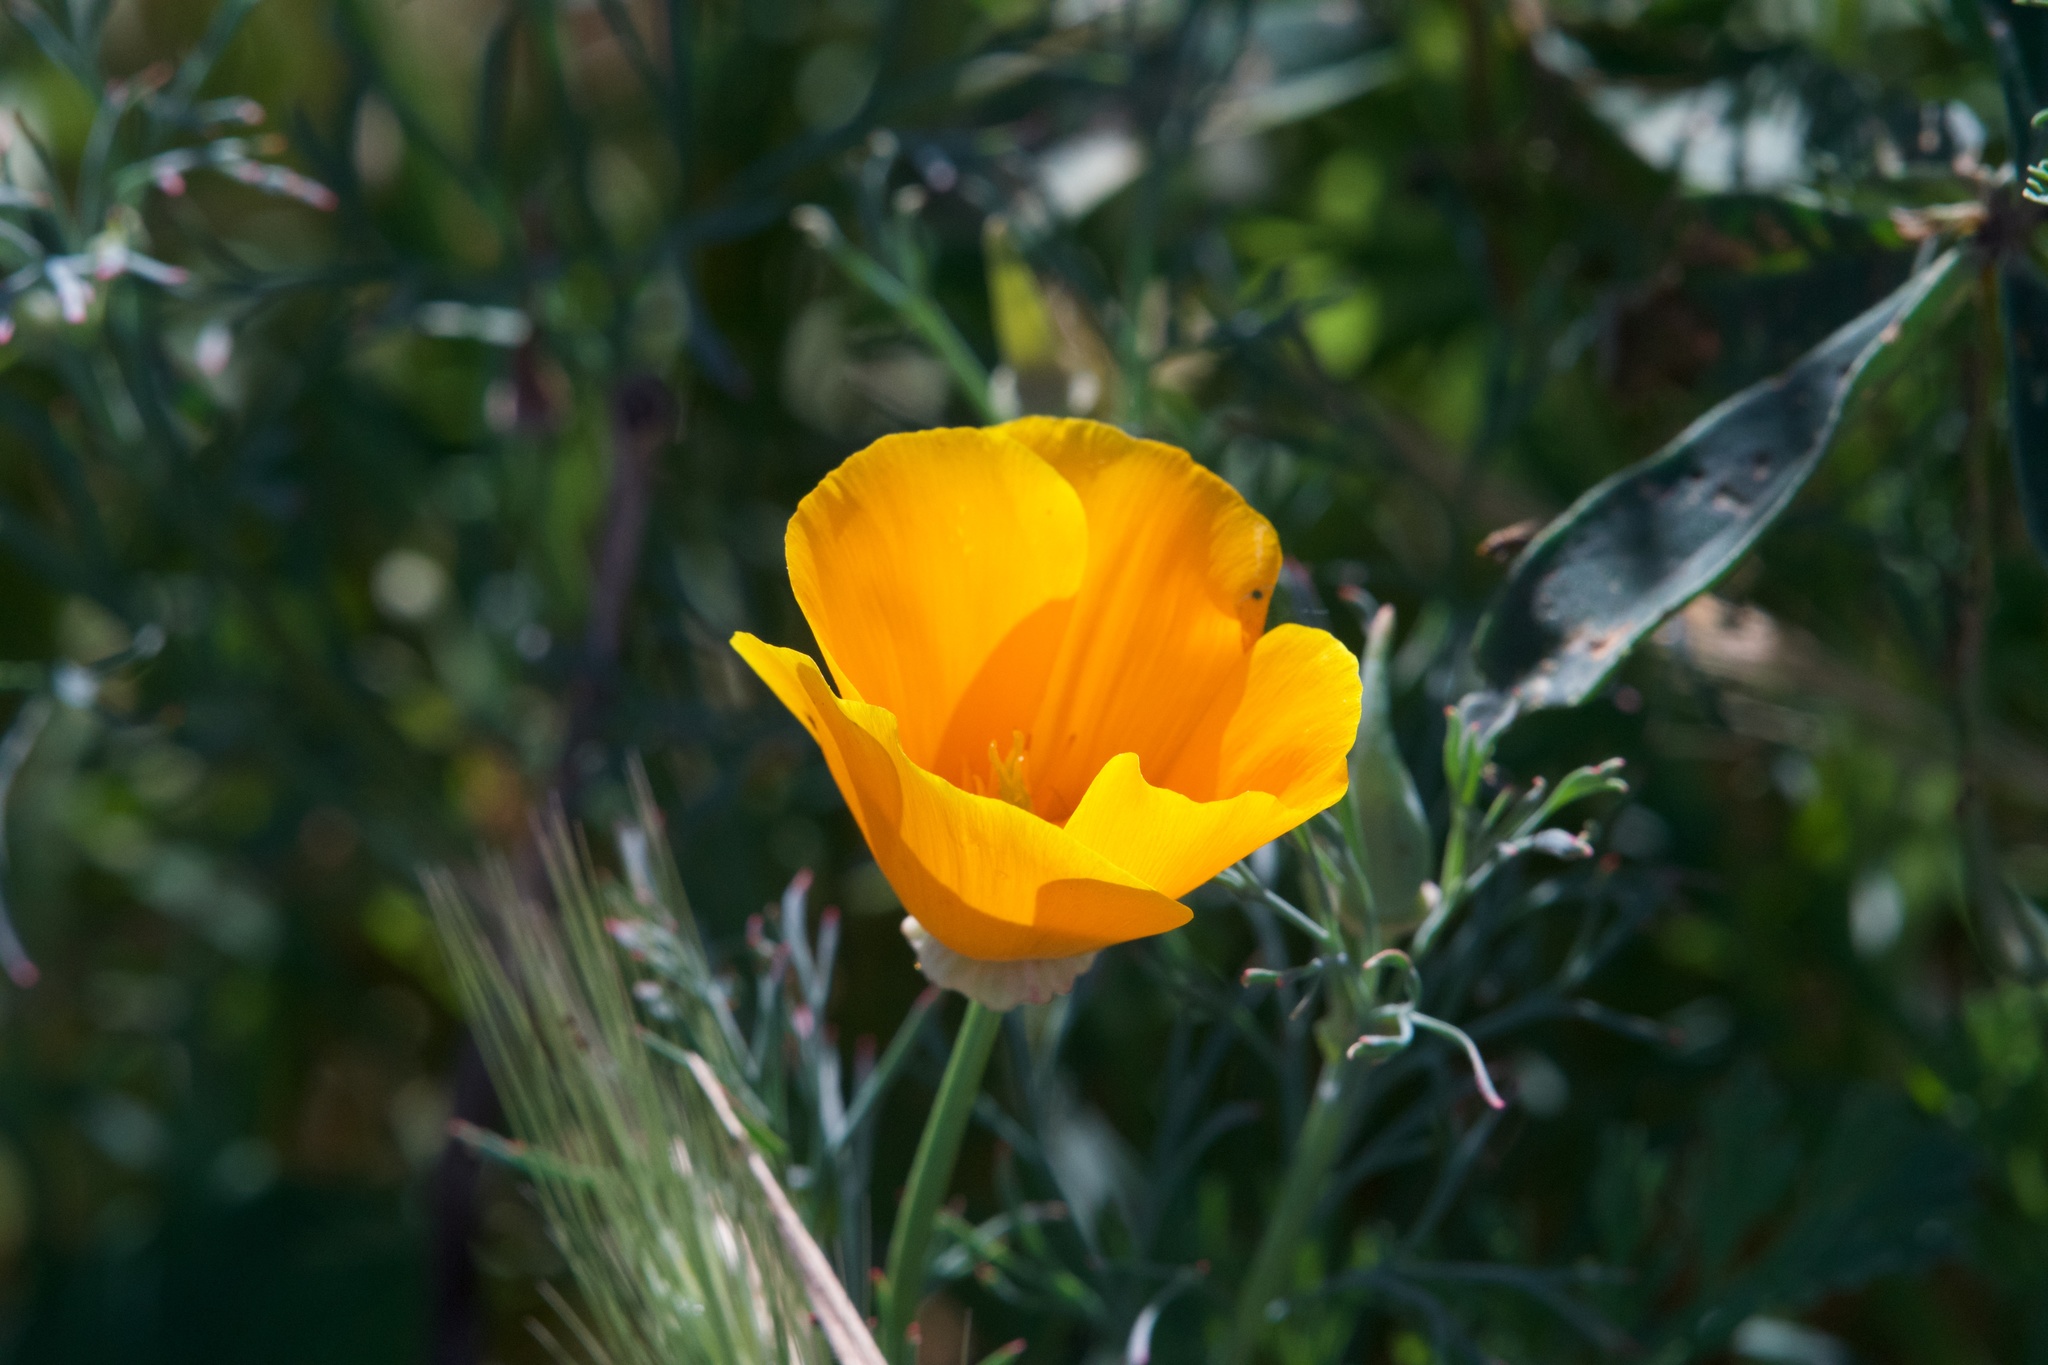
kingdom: Plantae
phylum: Tracheophyta
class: Magnoliopsida
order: Ranunculales
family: Papaveraceae
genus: Eschscholzia
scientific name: Eschscholzia californica
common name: California poppy
